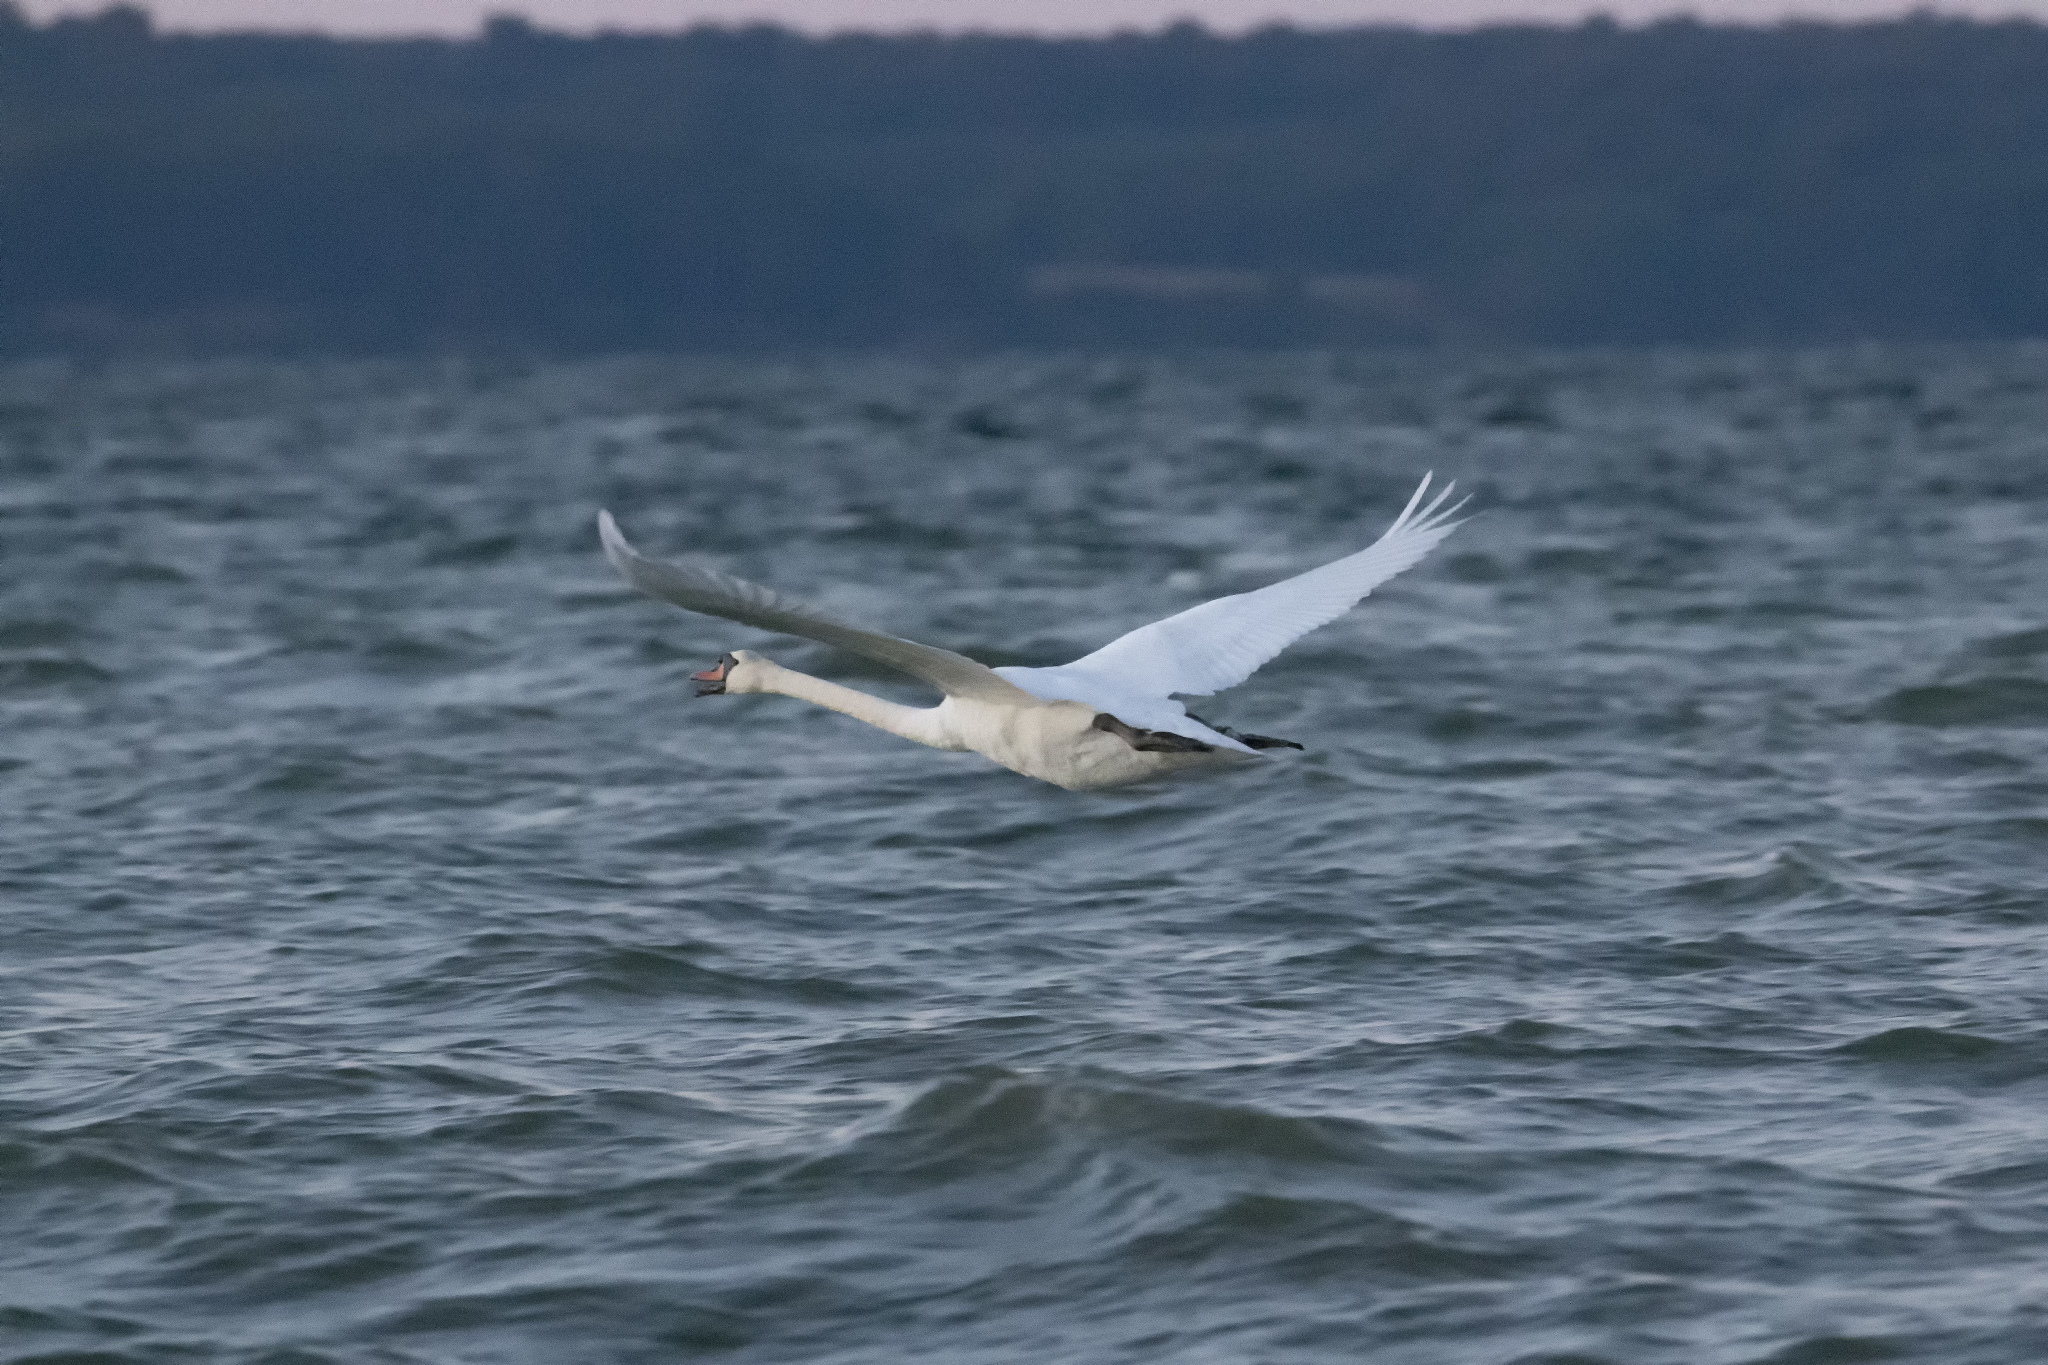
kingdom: Animalia
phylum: Chordata
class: Aves
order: Anseriformes
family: Anatidae
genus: Cygnus
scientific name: Cygnus olor
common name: Mute swan
